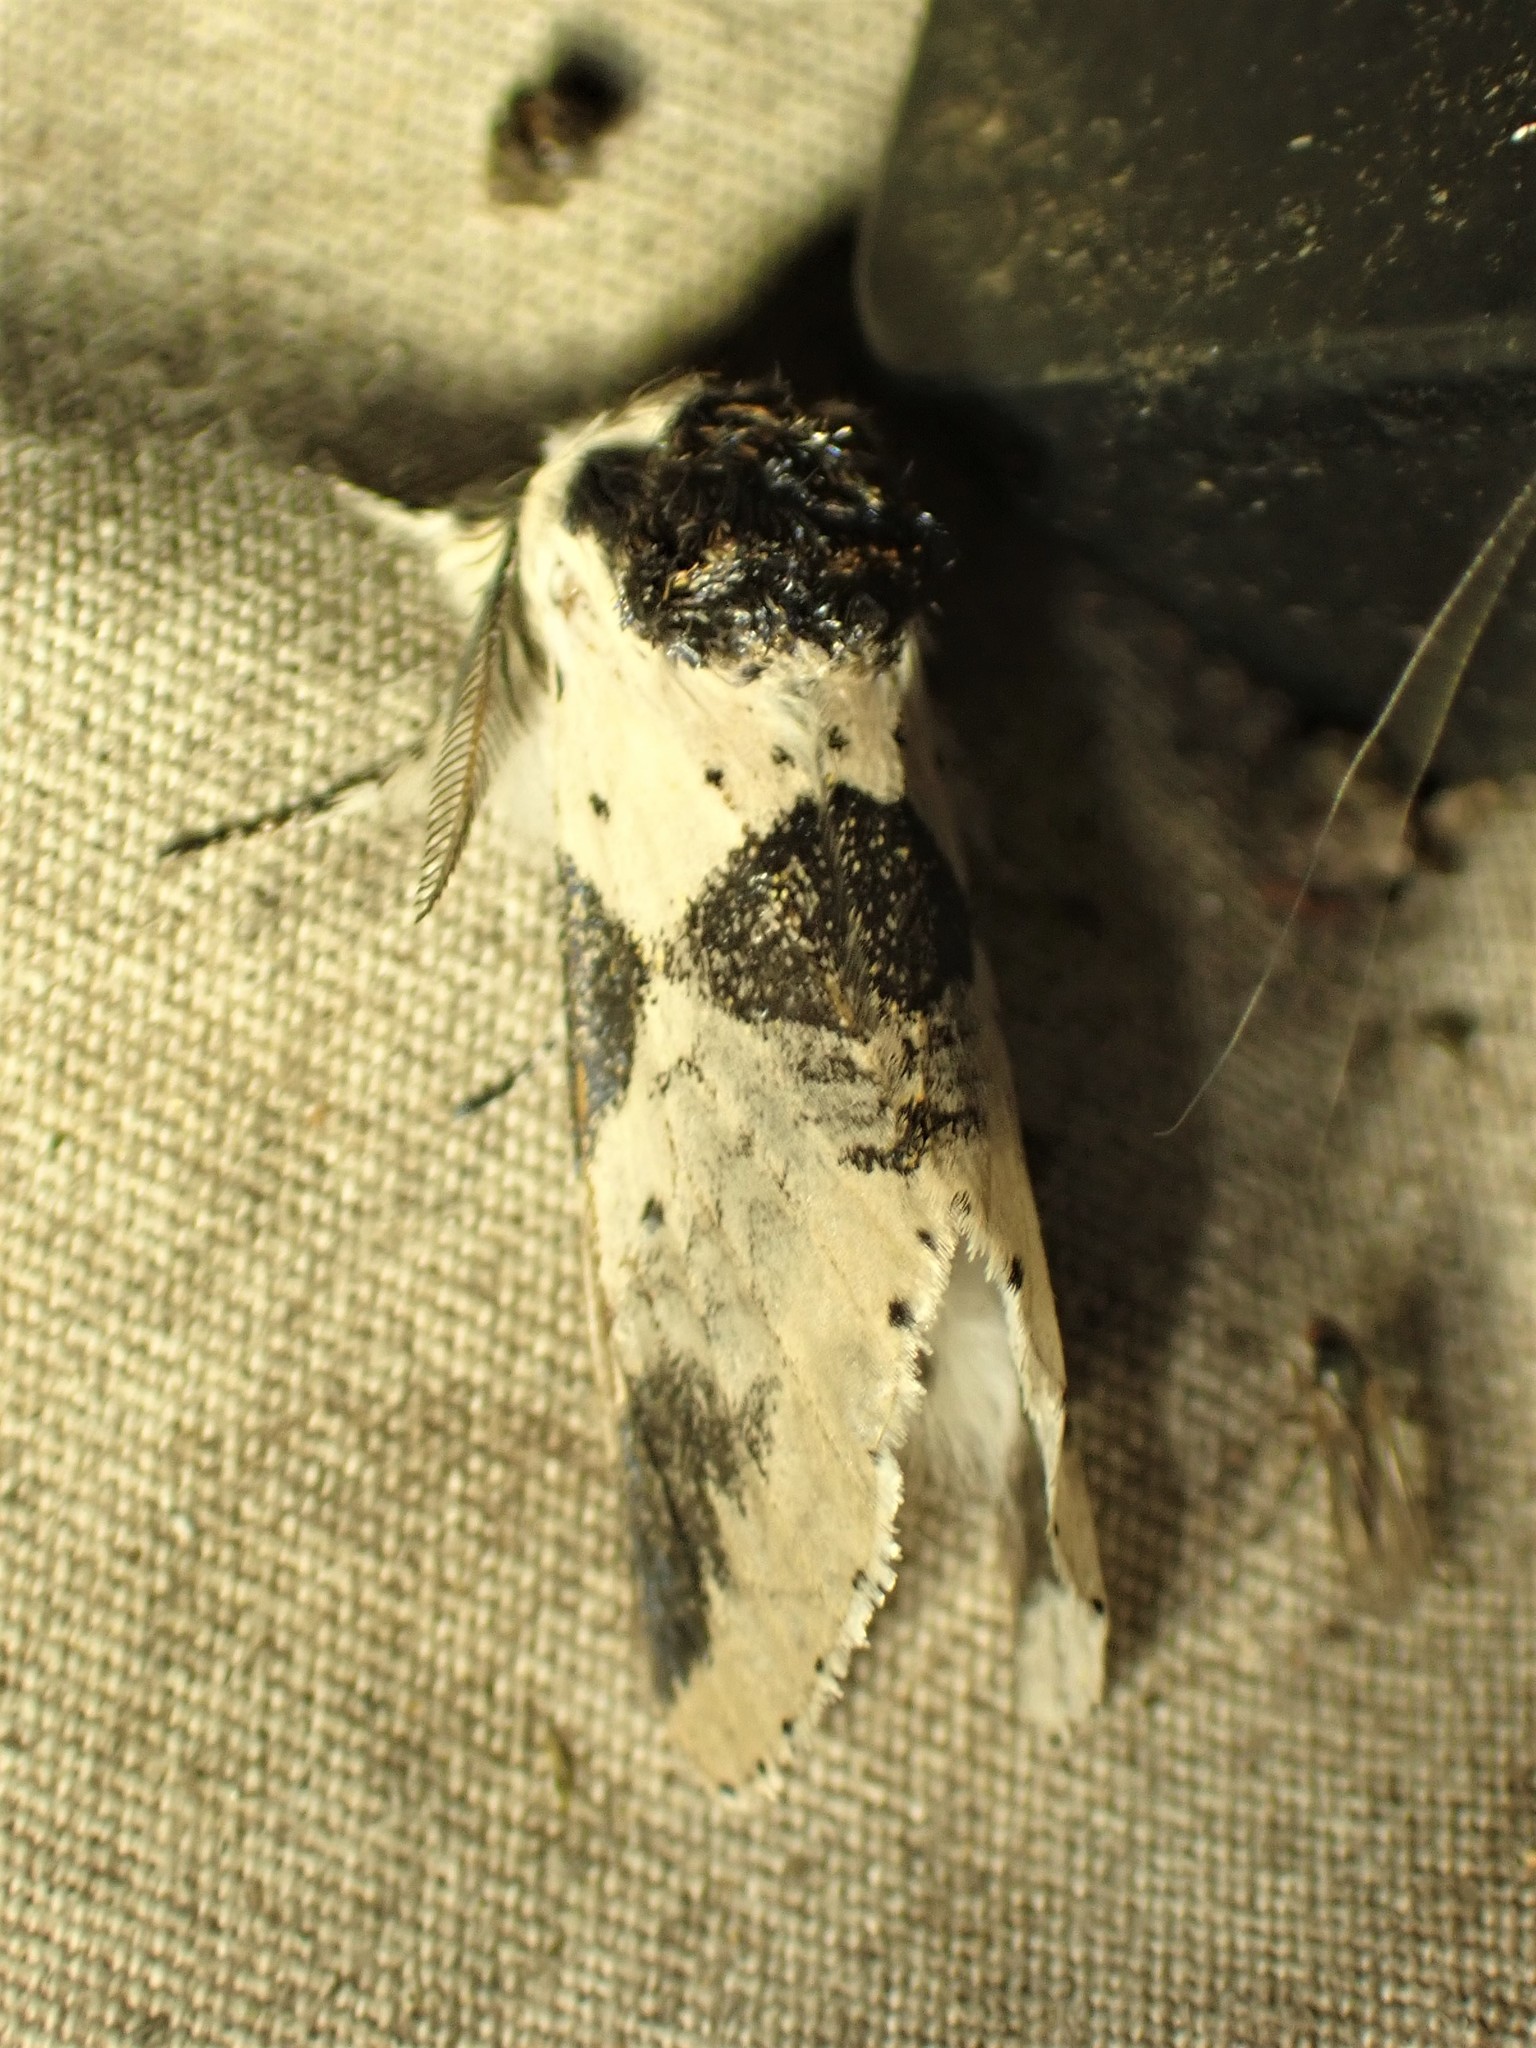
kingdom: Animalia
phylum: Arthropoda
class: Insecta
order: Lepidoptera
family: Notodontidae
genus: Furcula
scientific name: Furcula modesta
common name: Modest furcula moth
